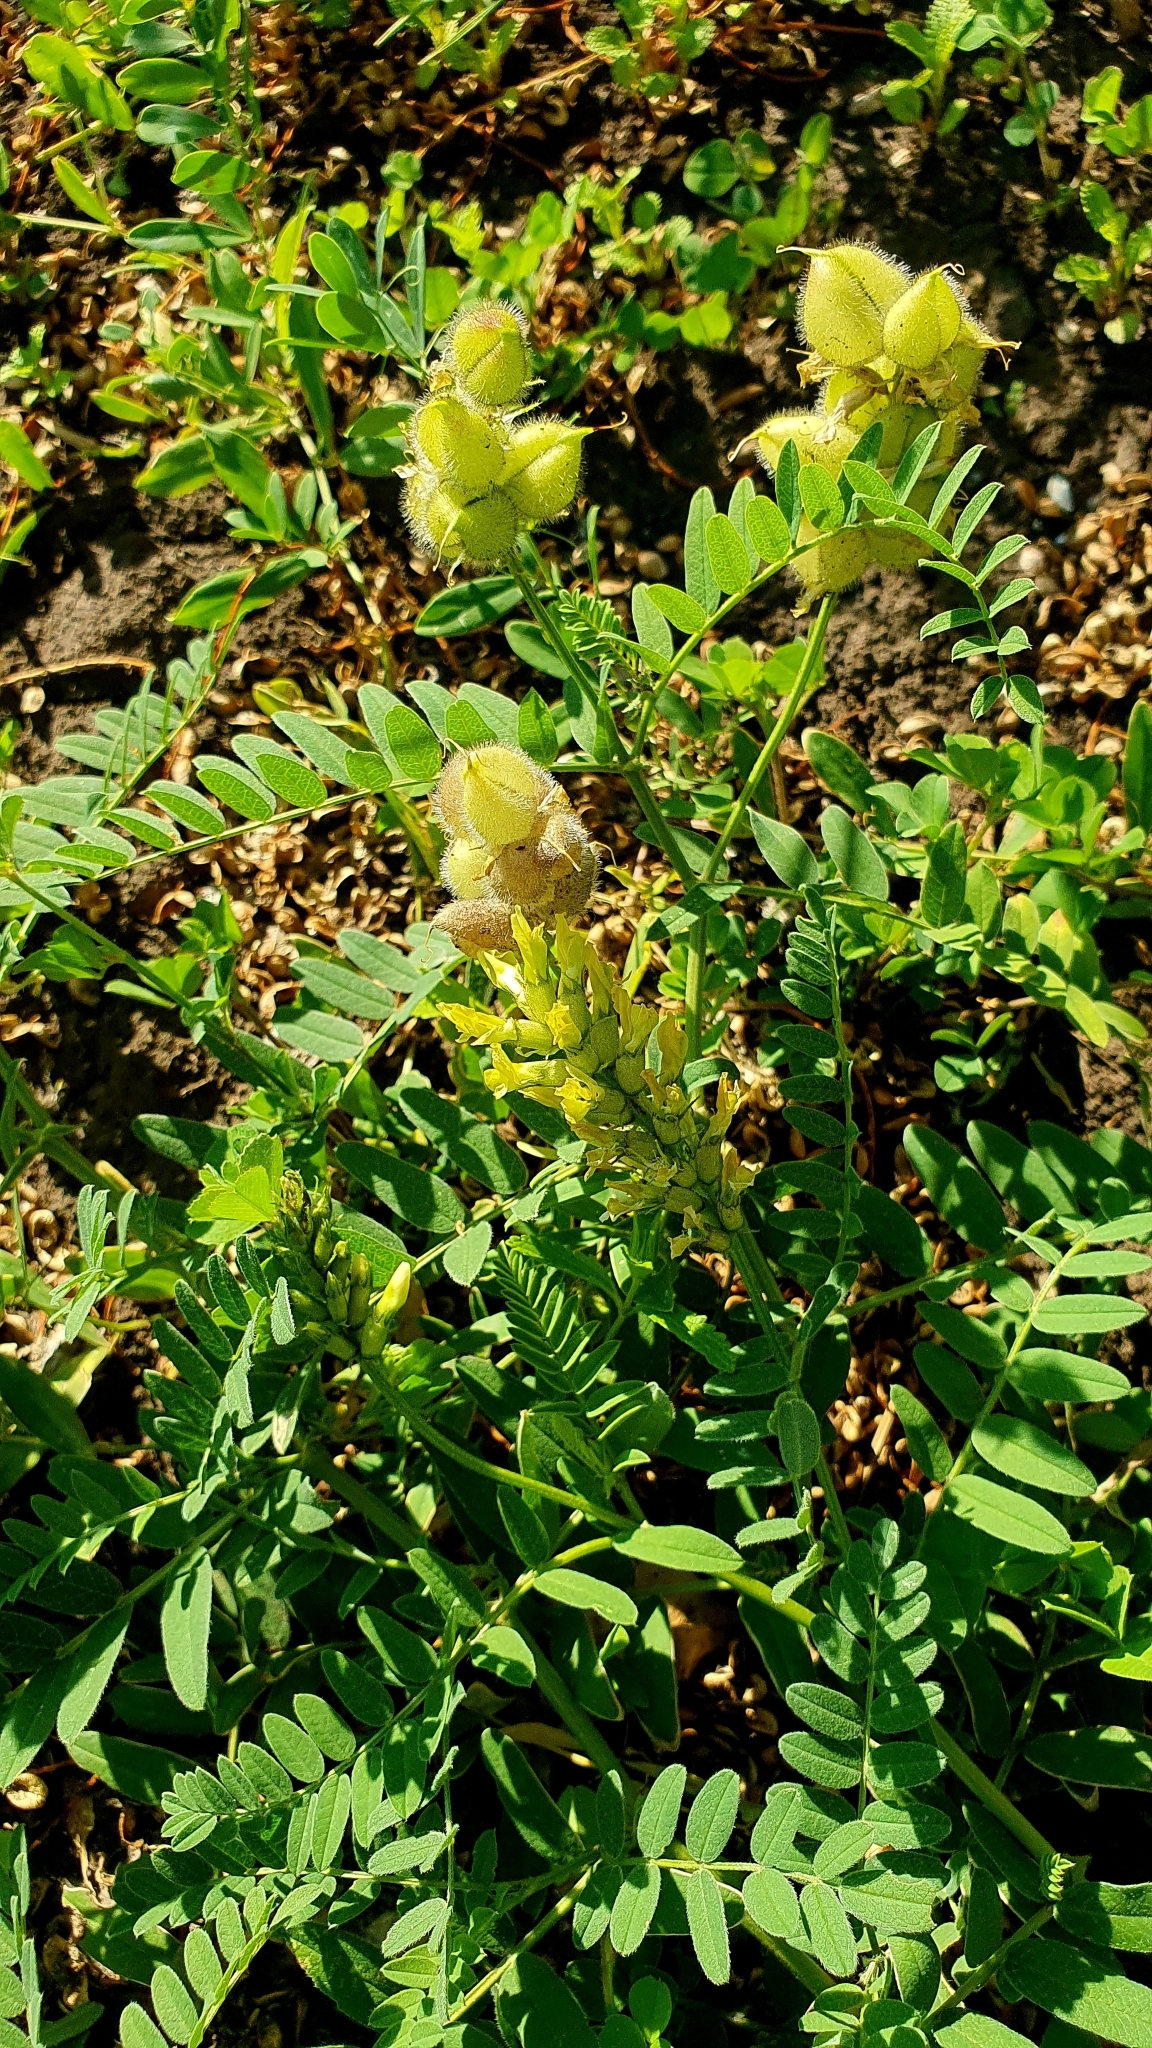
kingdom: Plantae
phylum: Tracheophyta
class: Magnoliopsida
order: Fabales
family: Fabaceae
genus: Astragalus
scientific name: Astragalus cicer
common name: Chick-pea milk-vetch
